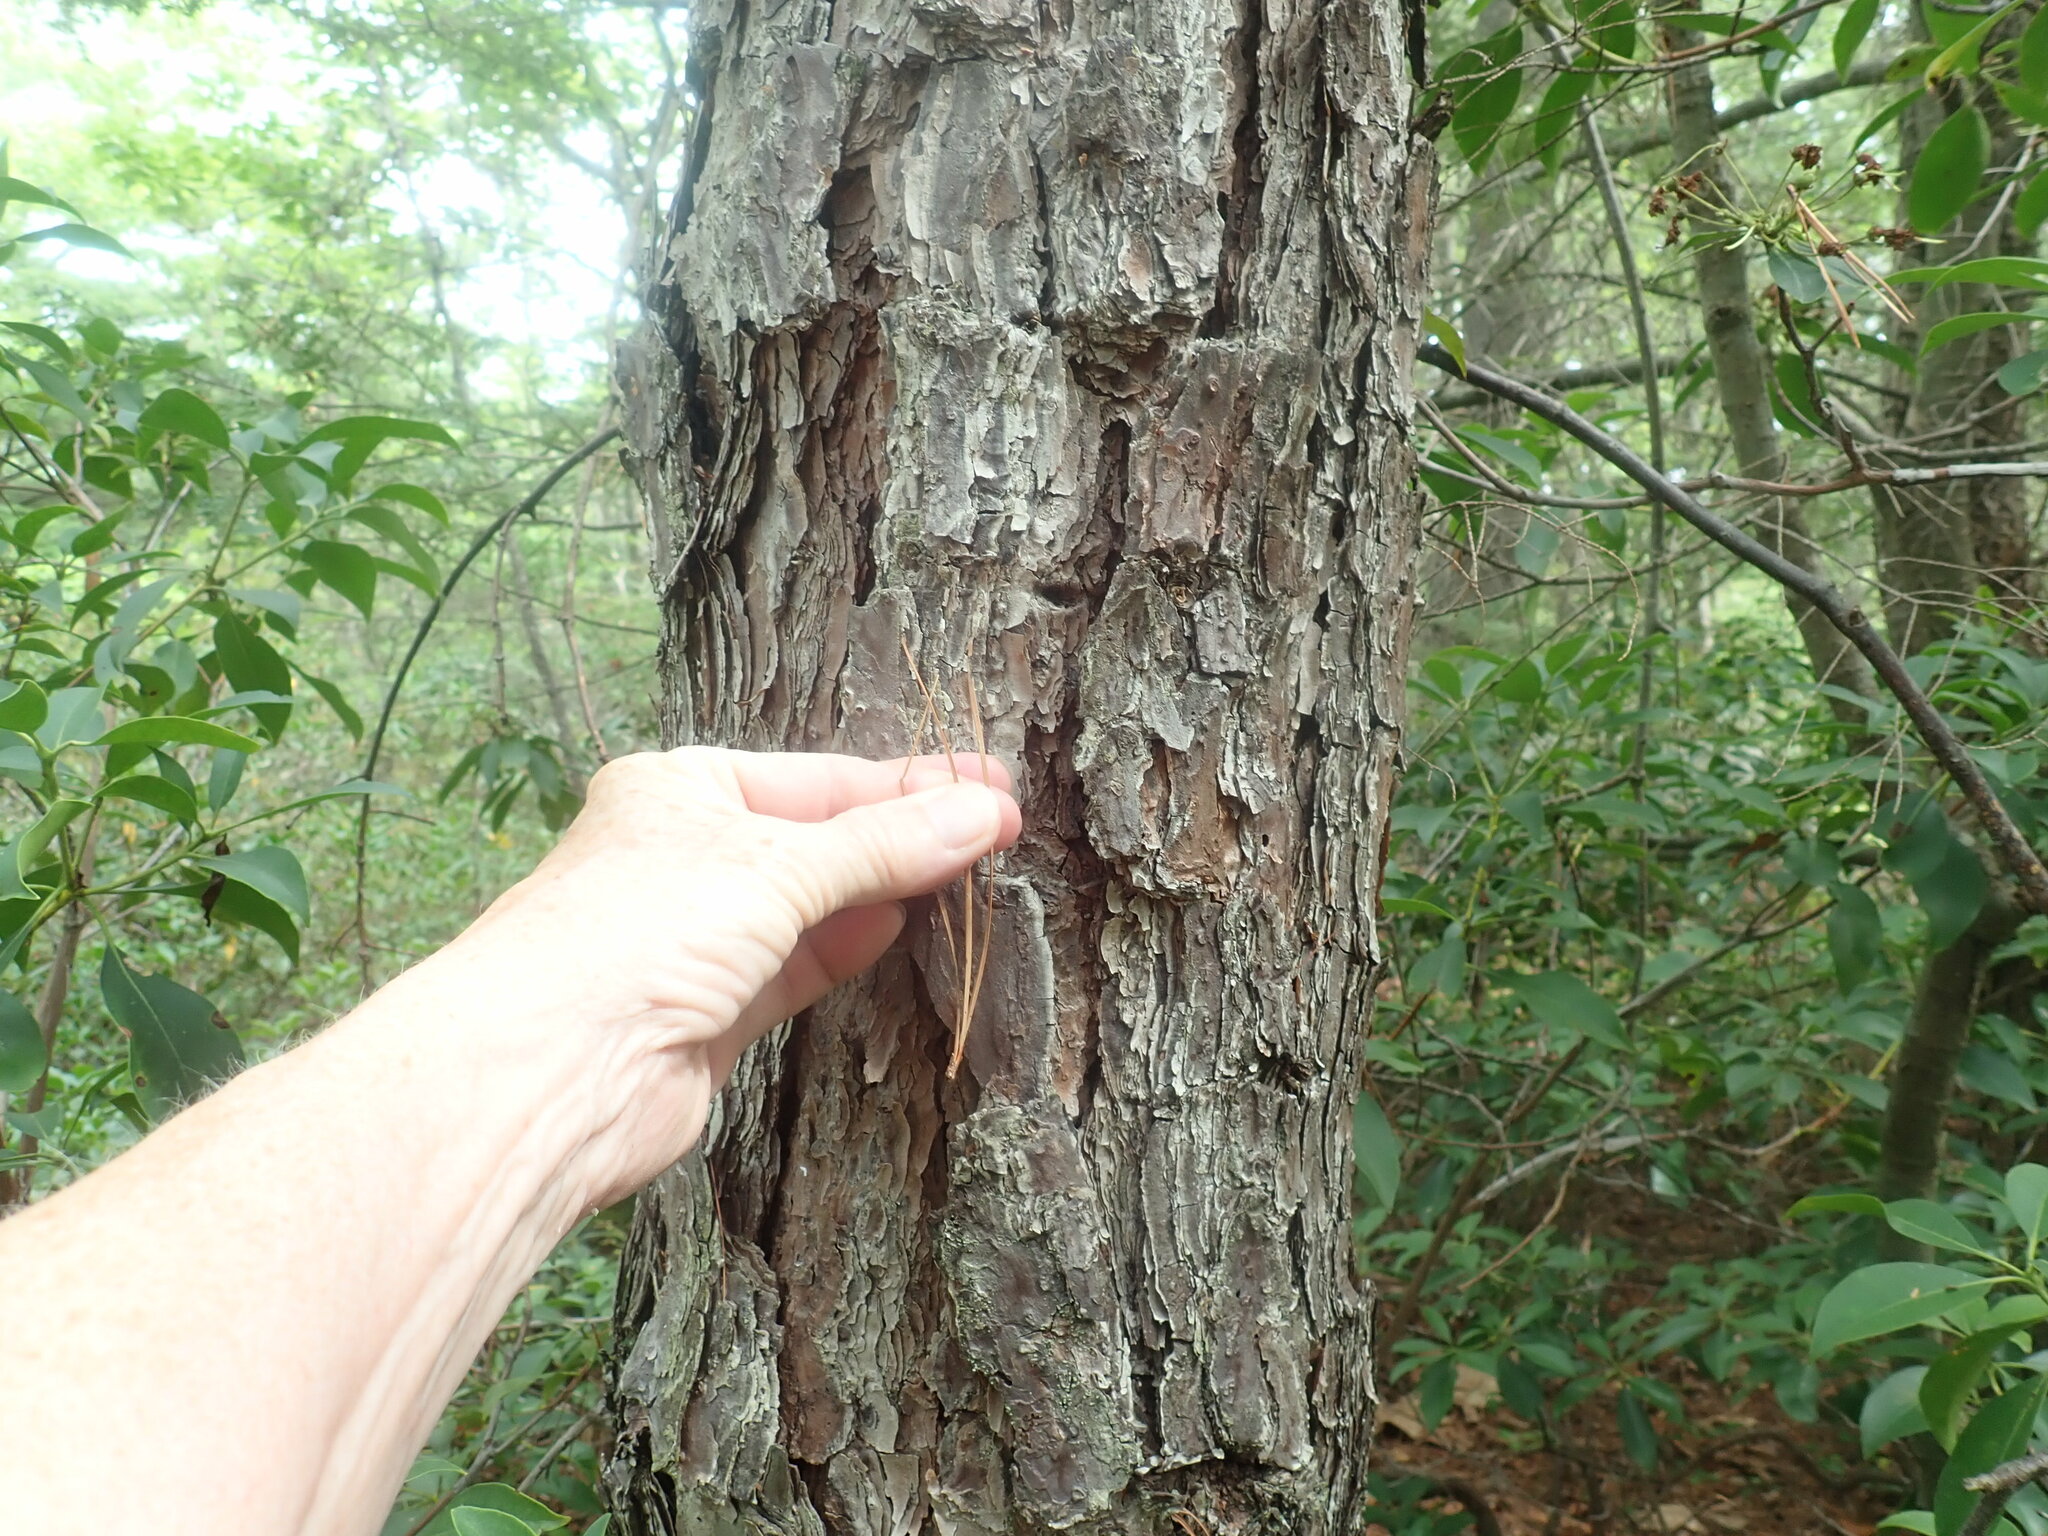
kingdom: Plantae
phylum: Tracheophyta
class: Pinopsida
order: Pinales
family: Pinaceae
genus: Pinus
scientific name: Pinus rigida
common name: Pitch pine
